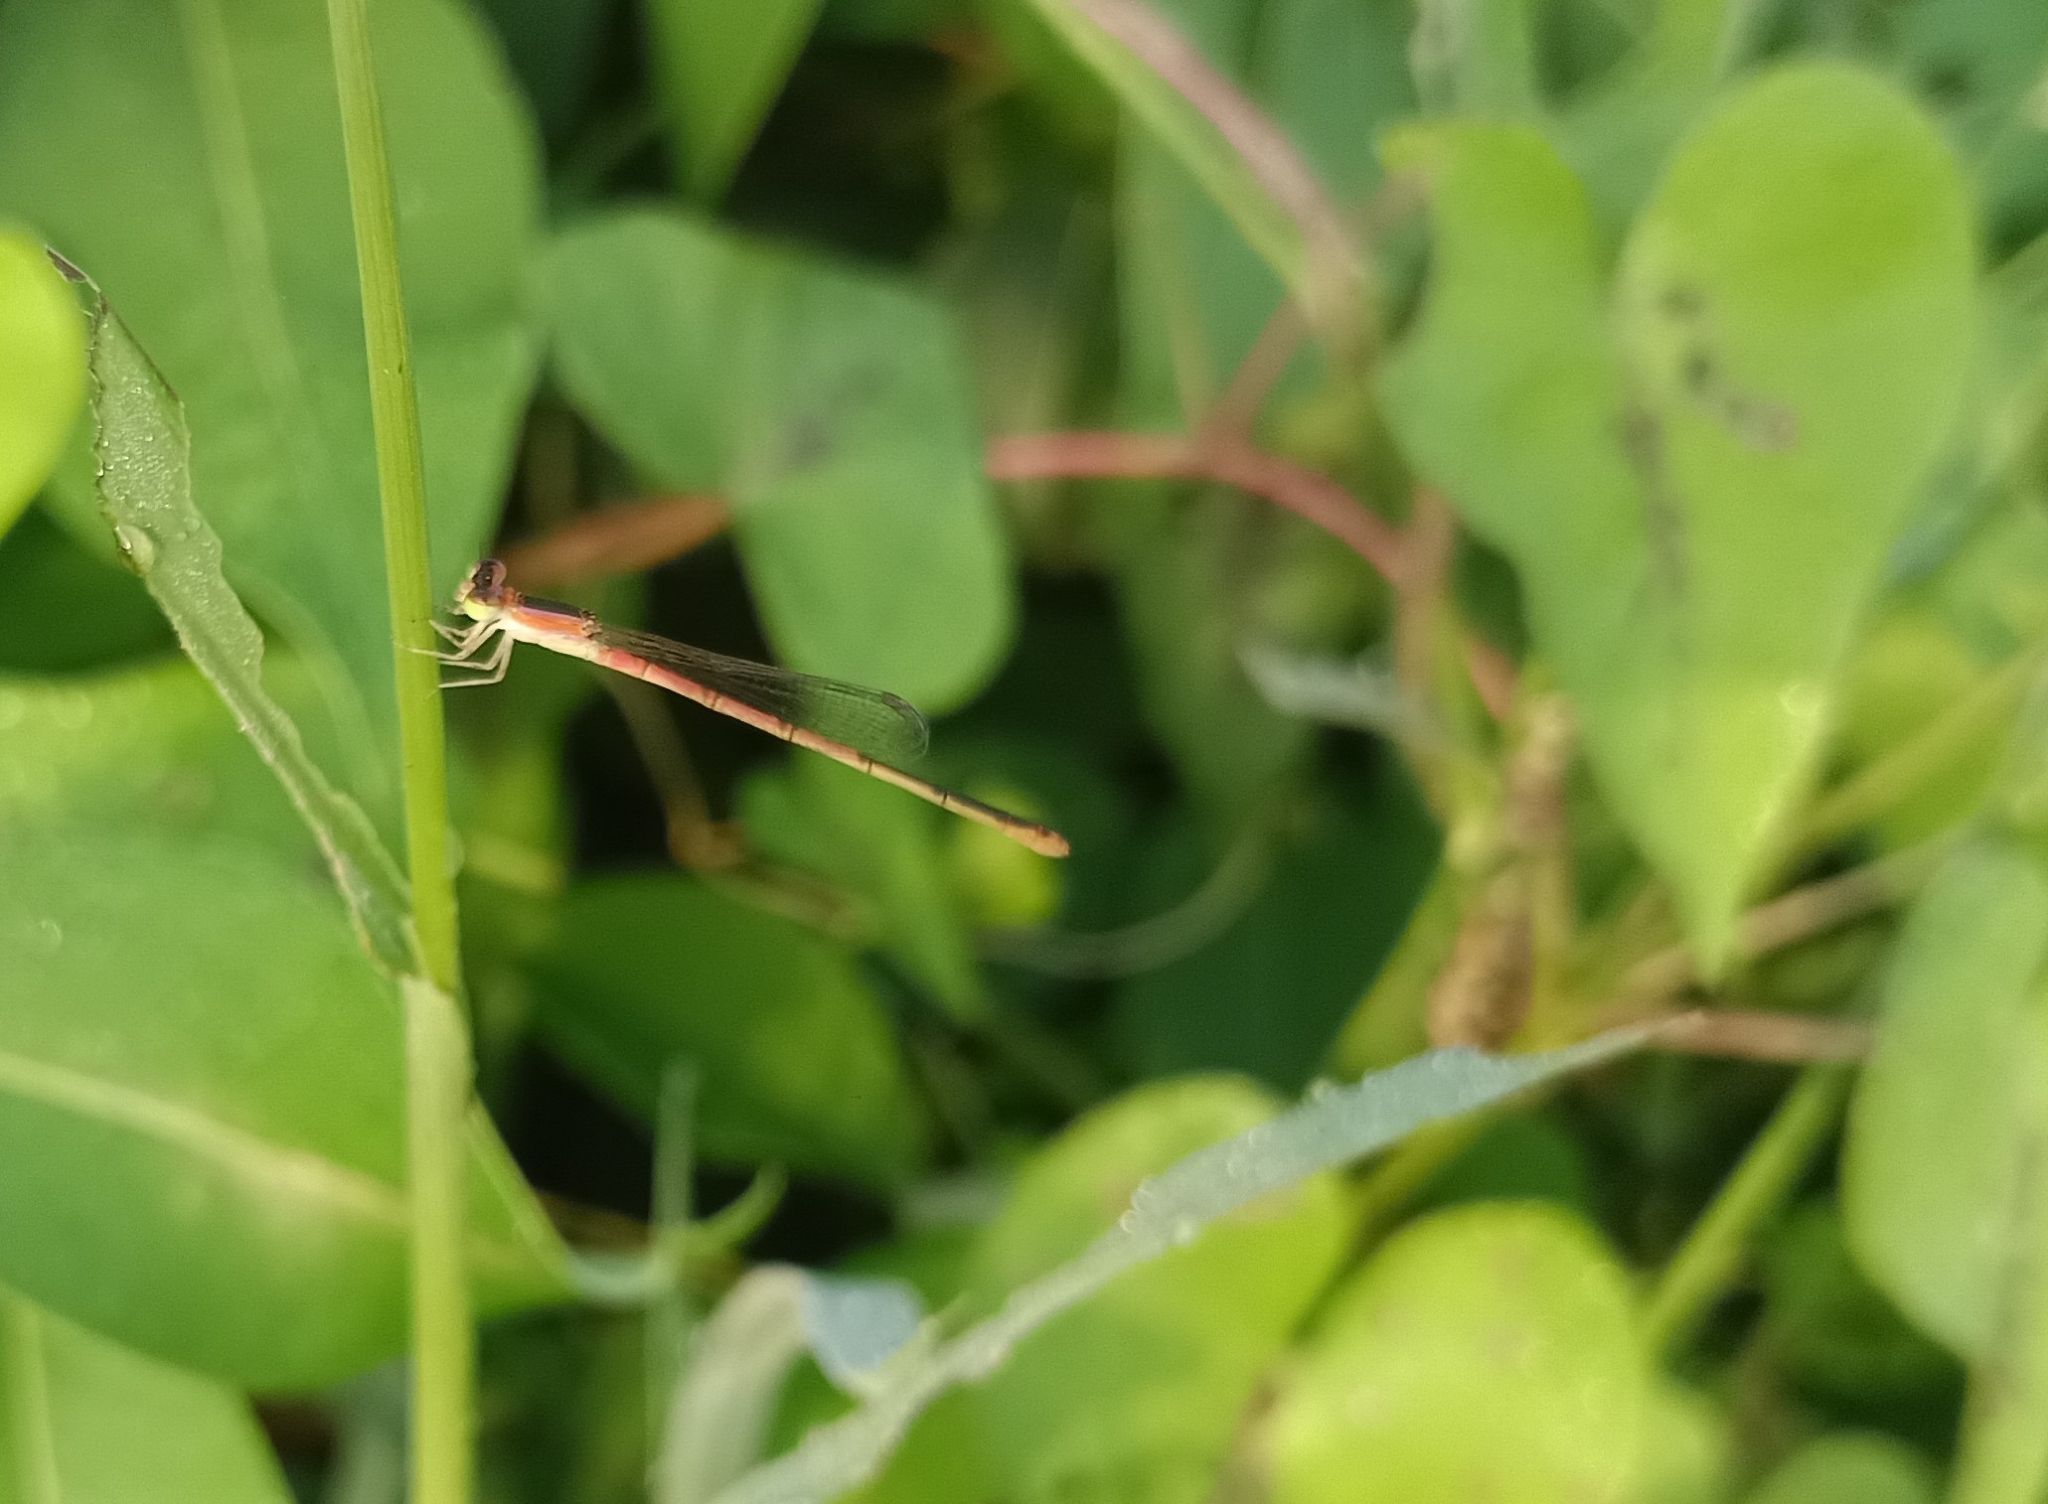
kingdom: Animalia
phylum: Arthropoda
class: Insecta
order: Odonata
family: Coenagrionidae
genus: Agriocnemis
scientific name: Agriocnemis pygmaea
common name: Pygmy wisp
